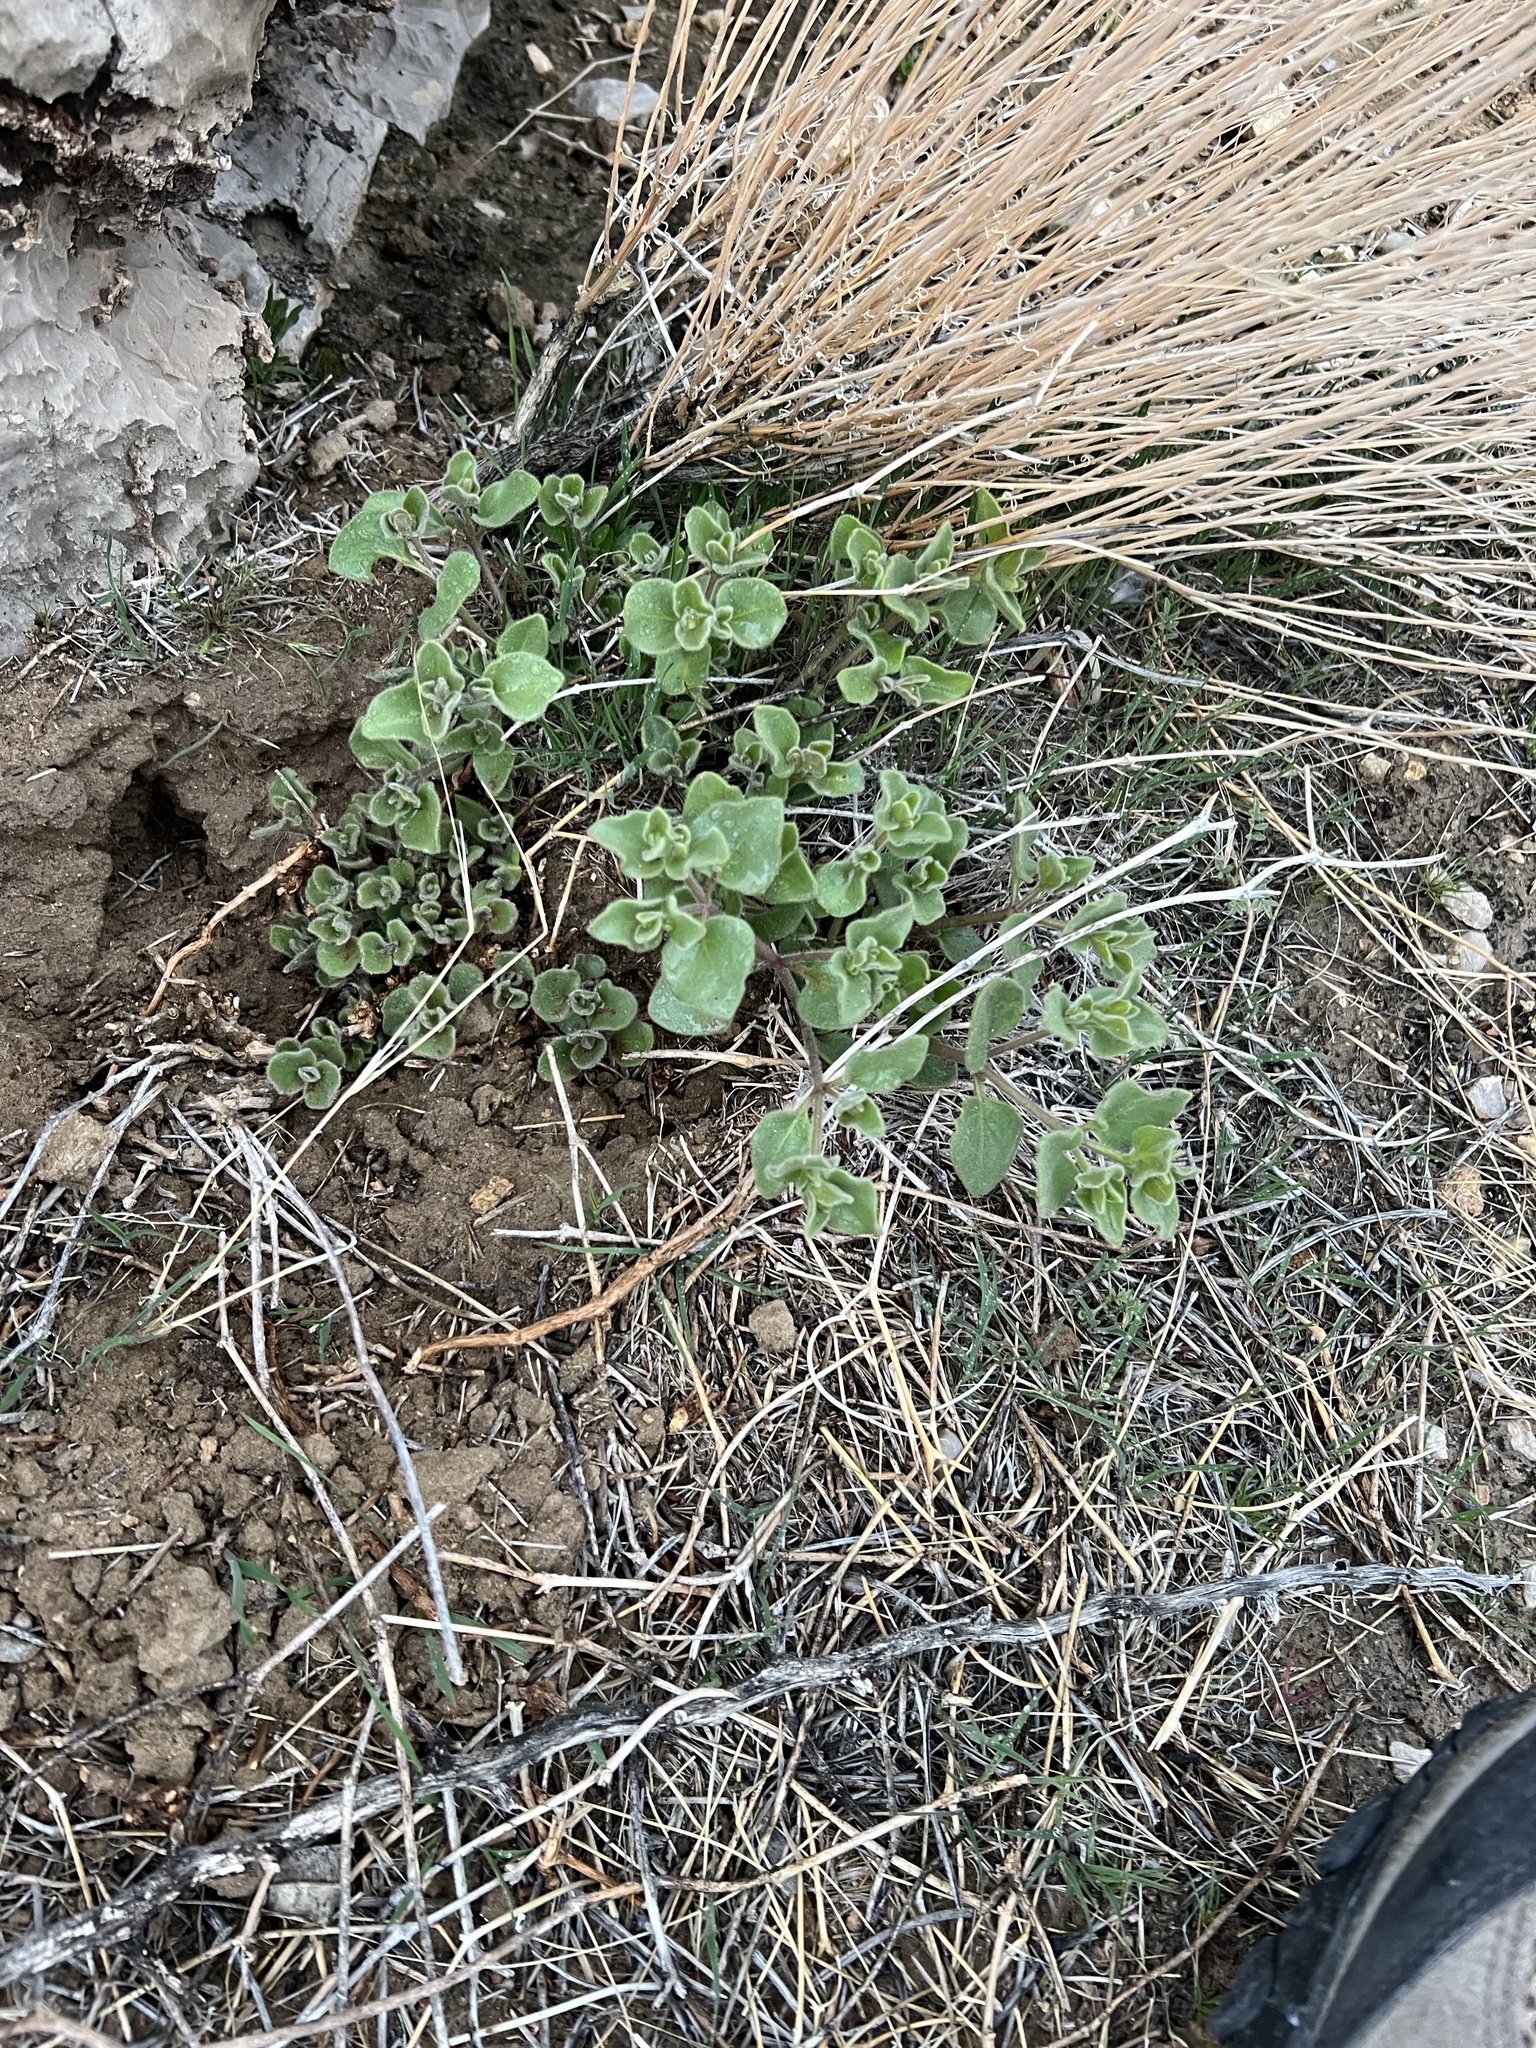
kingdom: Plantae
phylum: Tracheophyta
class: Magnoliopsida
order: Caryophyllales
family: Nyctaginaceae
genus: Mirabilis
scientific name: Mirabilis laevis
